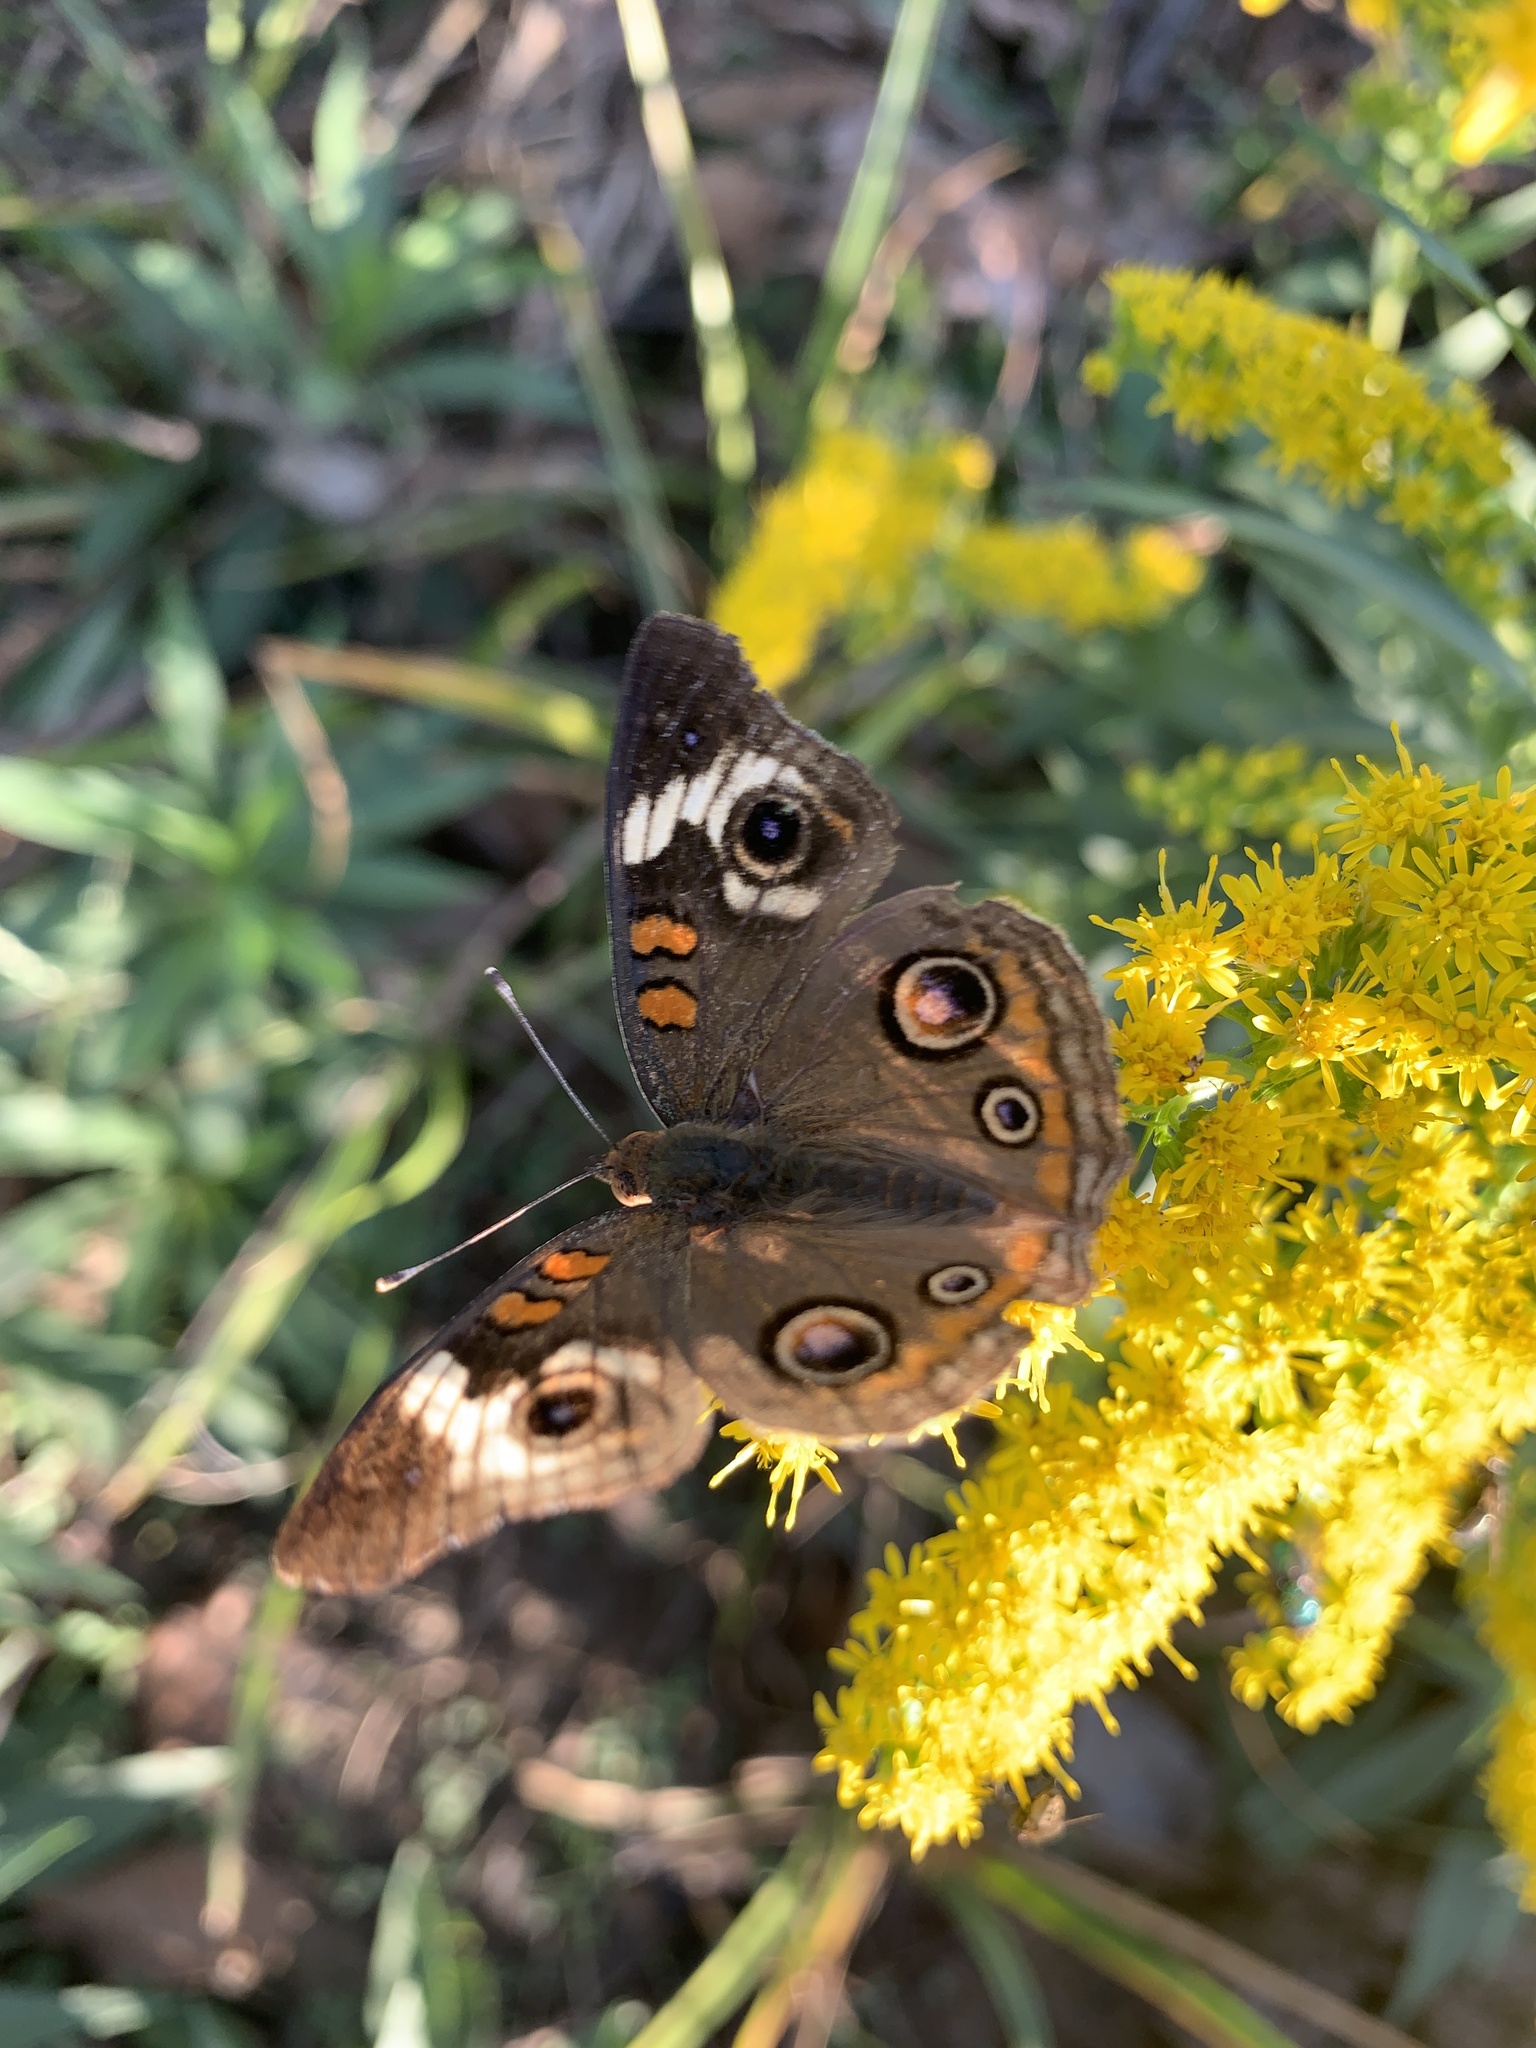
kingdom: Animalia
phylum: Arthropoda
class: Insecta
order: Lepidoptera
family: Nymphalidae
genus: Junonia
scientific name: Junonia coenia
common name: Common buckeye
